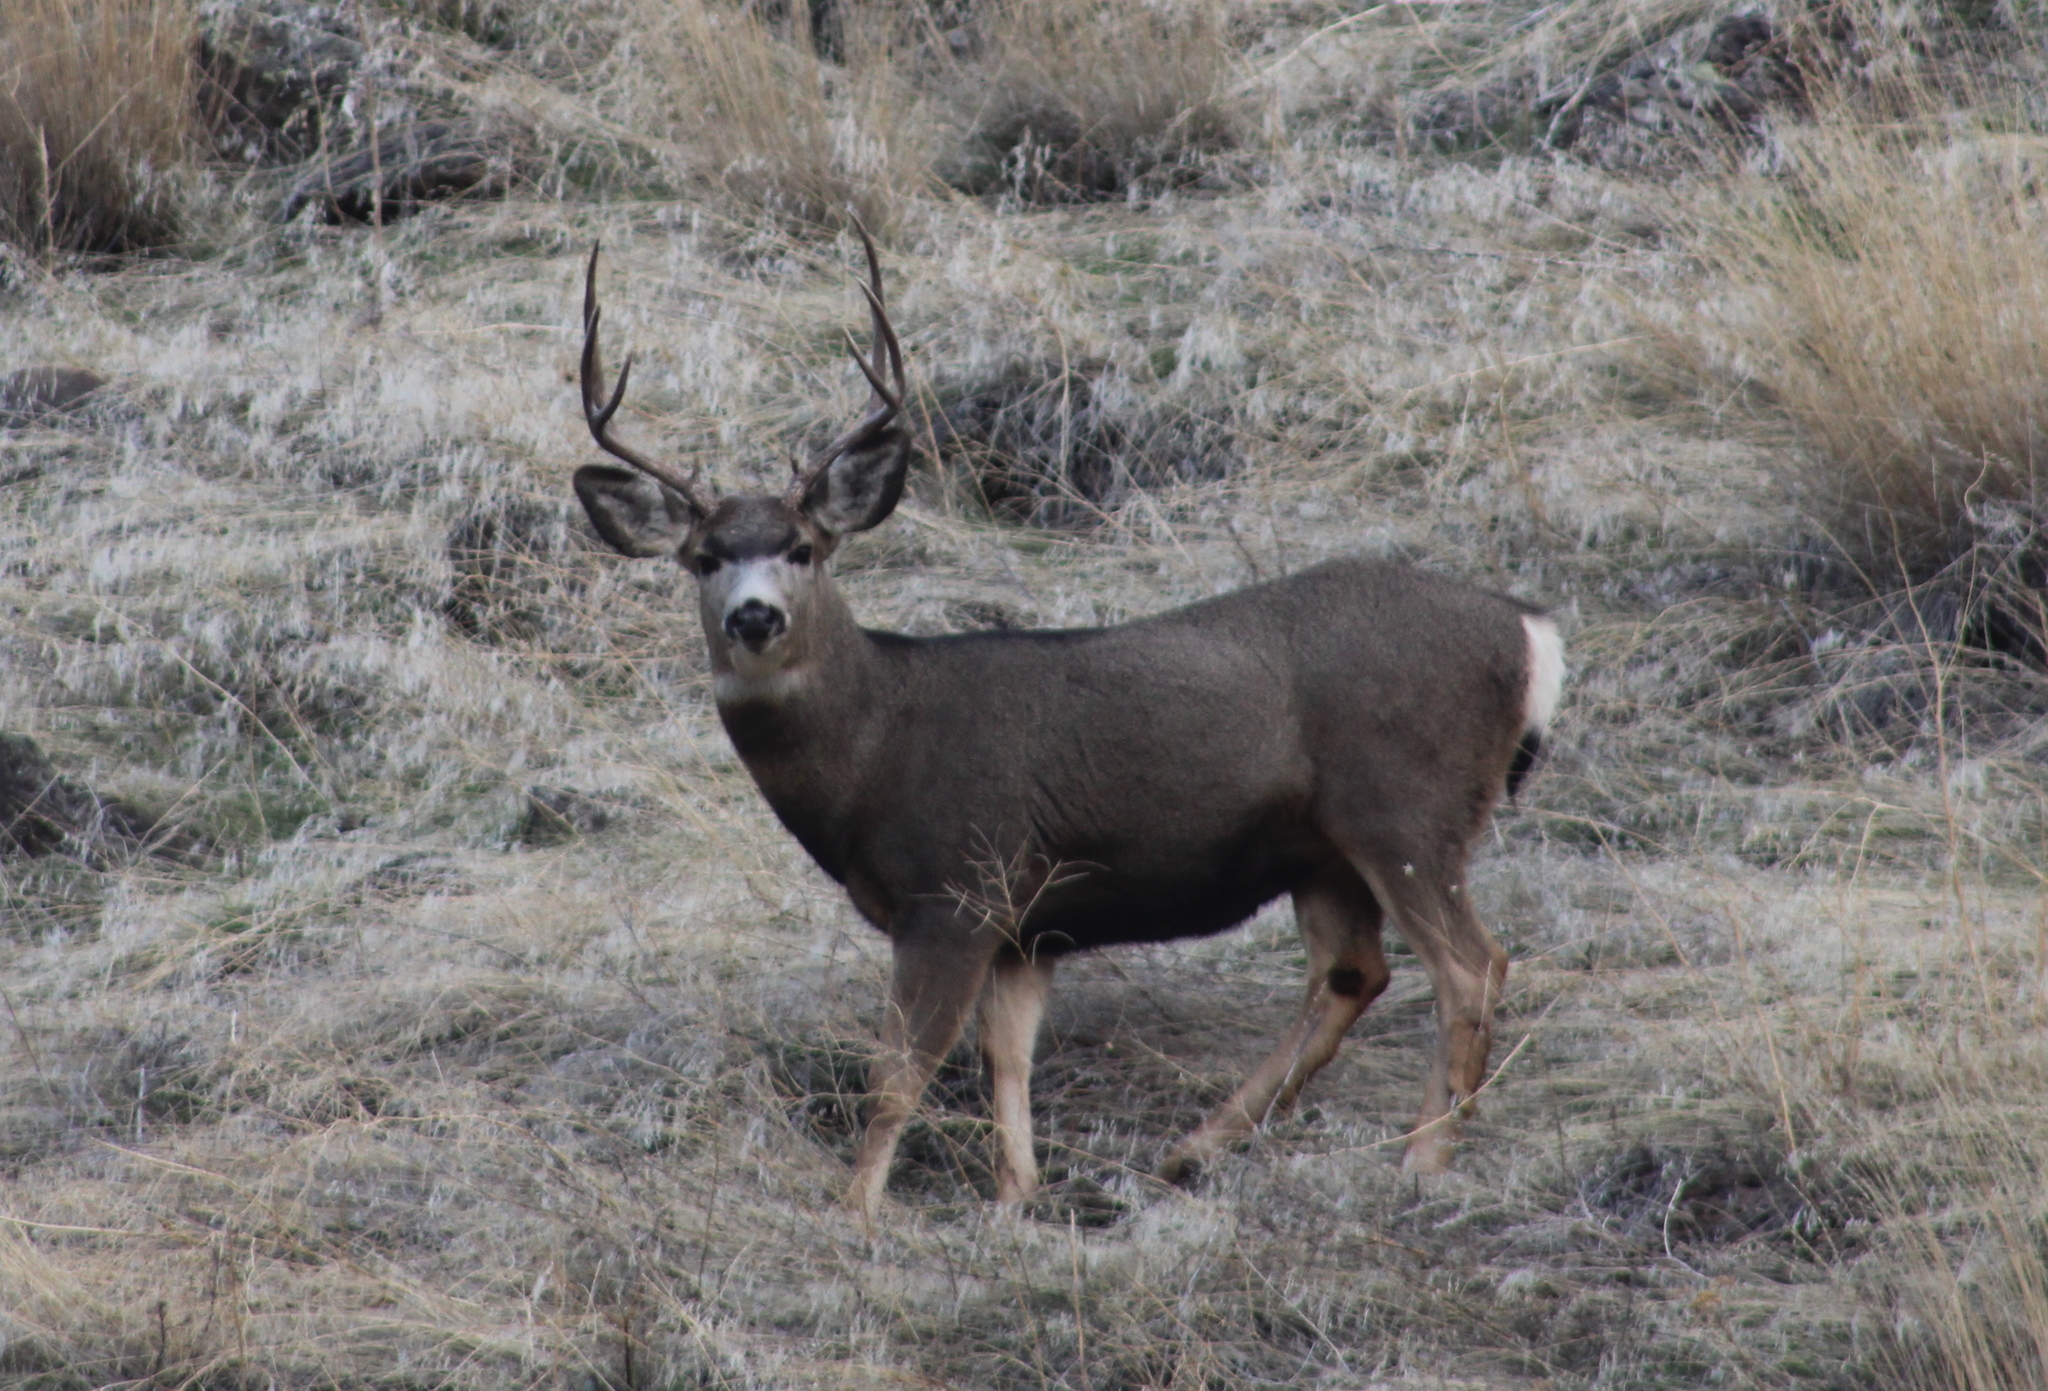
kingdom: Animalia
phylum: Chordata
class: Mammalia
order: Artiodactyla
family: Cervidae
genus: Odocoileus
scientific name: Odocoileus hemionus
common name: Mule deer
